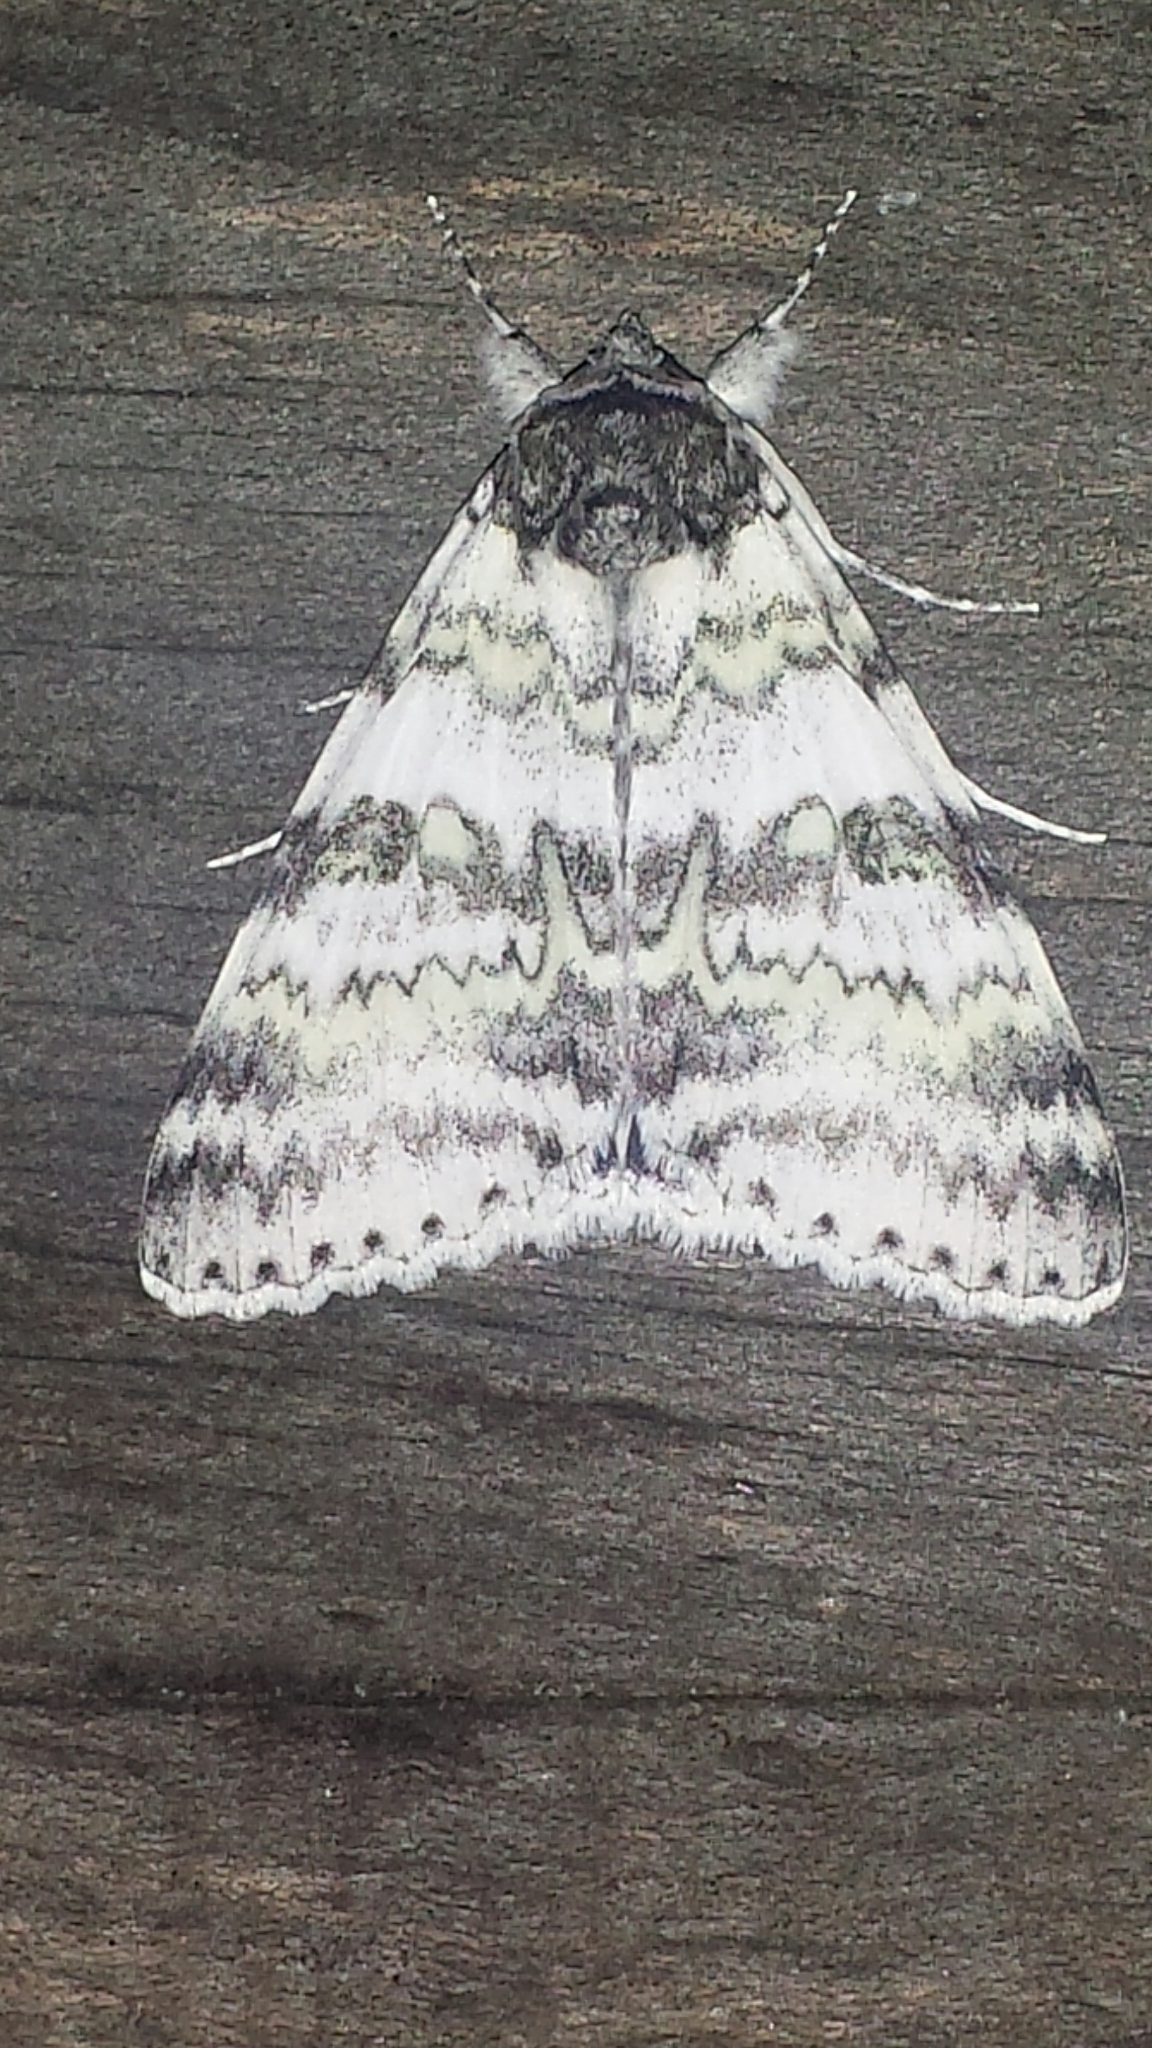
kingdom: Animalia
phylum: Arthropoda
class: Insecta
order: Lepidoptera
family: Erebidae
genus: Catocala
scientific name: Catocala relicta
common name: White underwing
